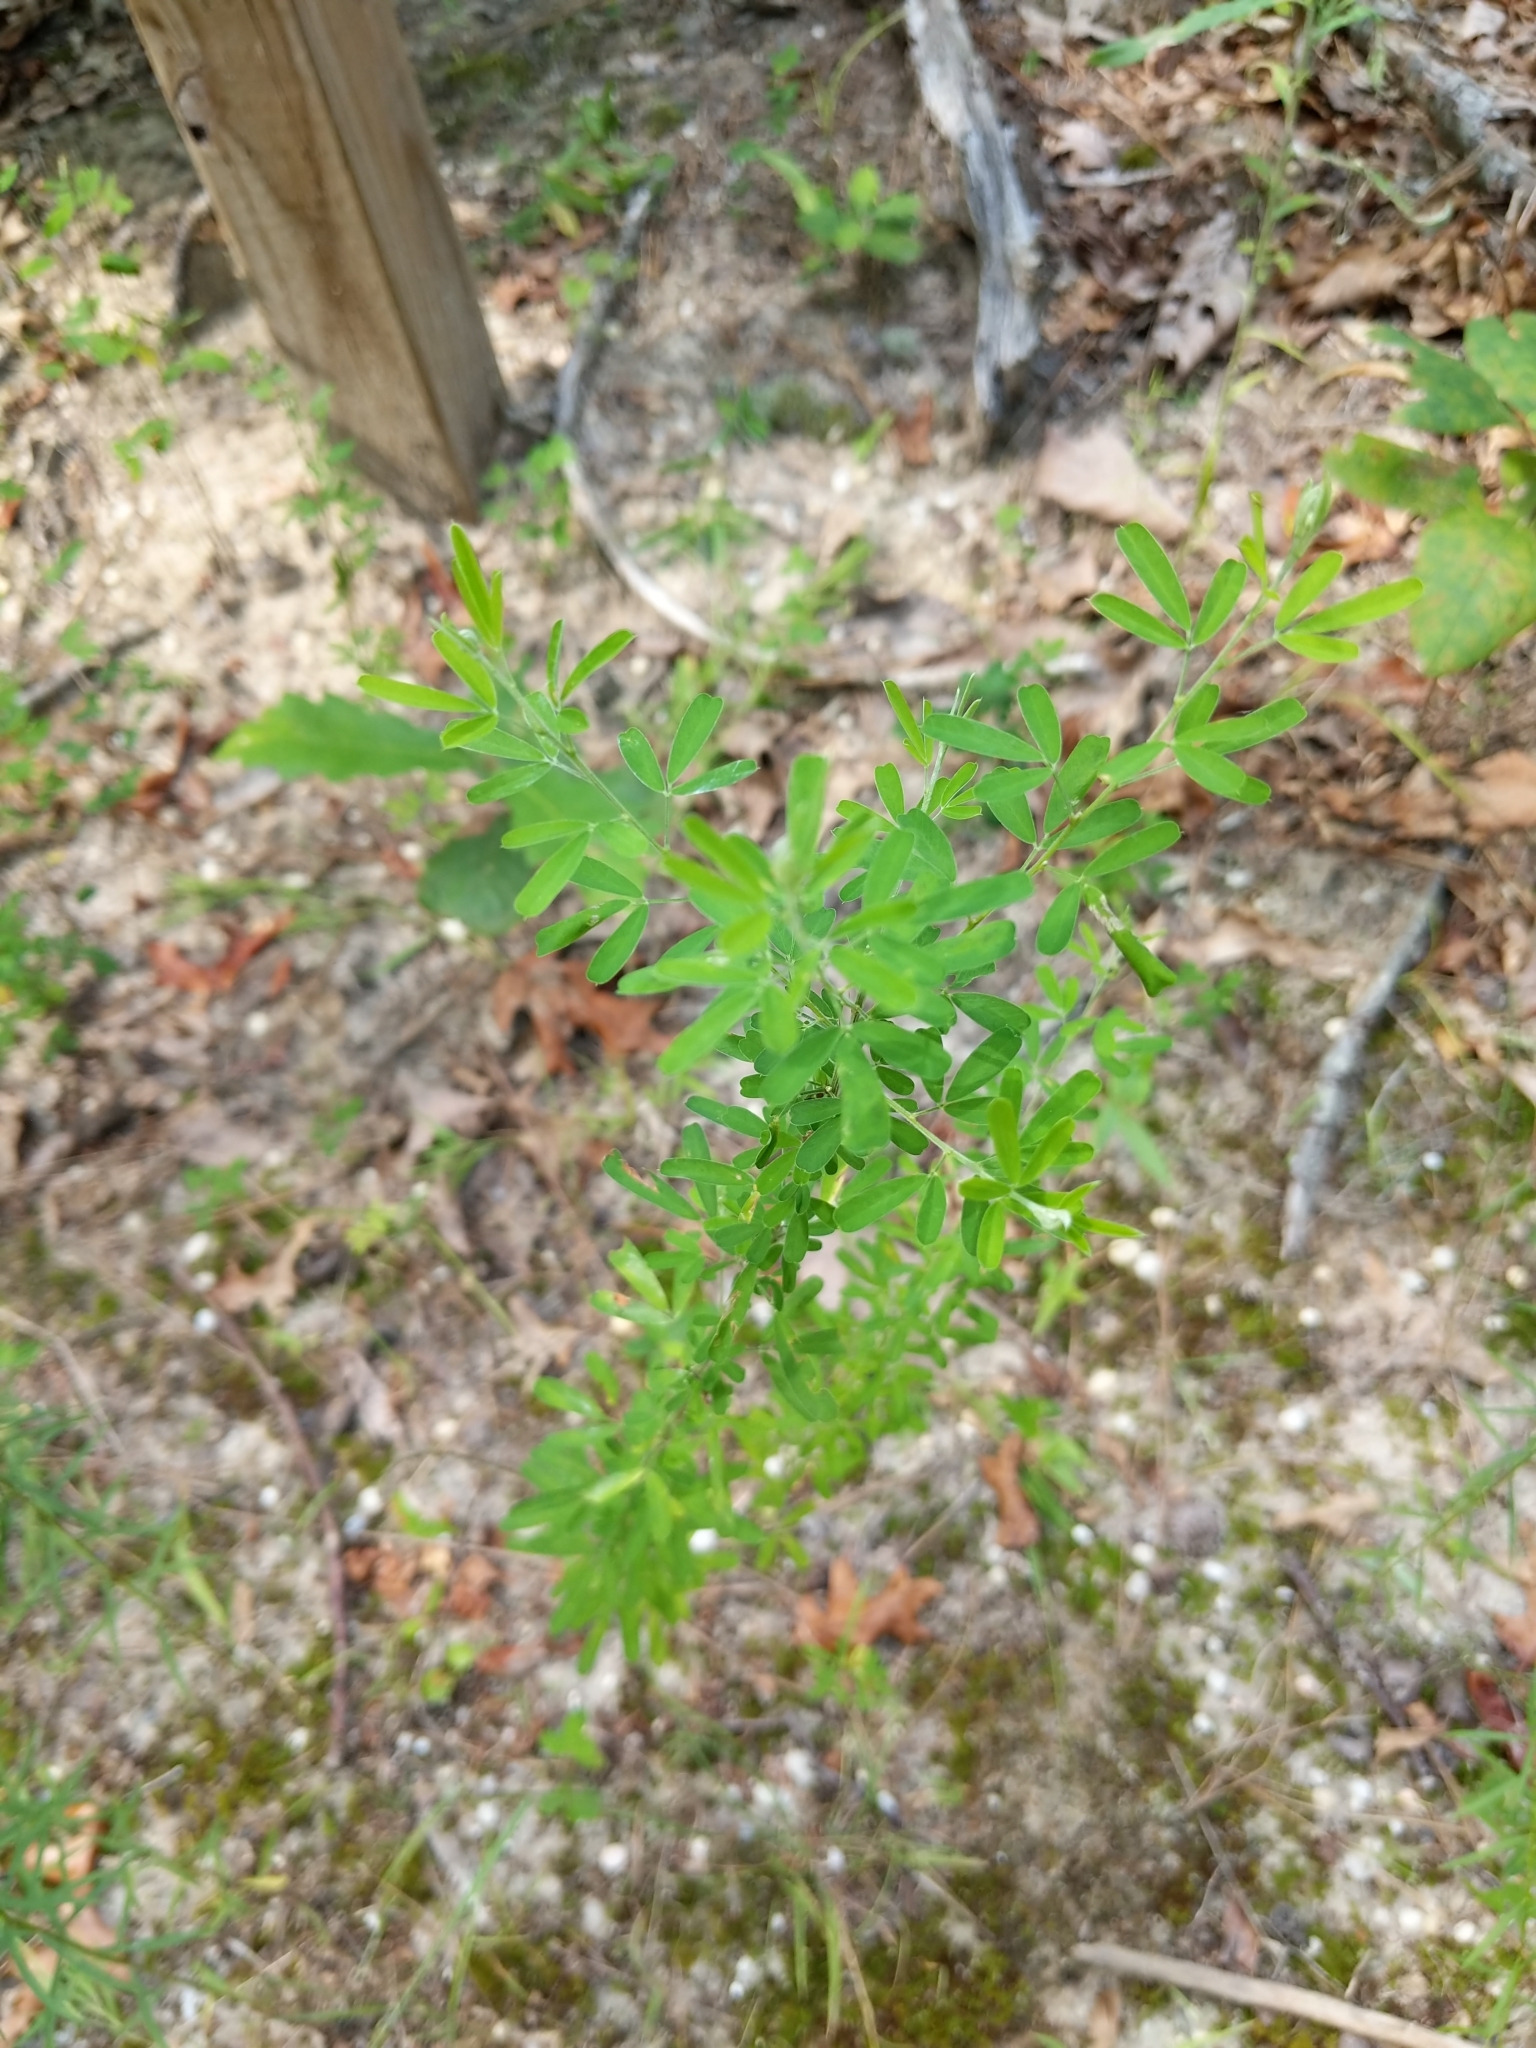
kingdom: Plantae
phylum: Tracheophyta
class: Magnoliopsida
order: Fabales
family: Fabaceae
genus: Lespedeza
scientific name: Lespedeza cuneata
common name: Chinese bush-clover
